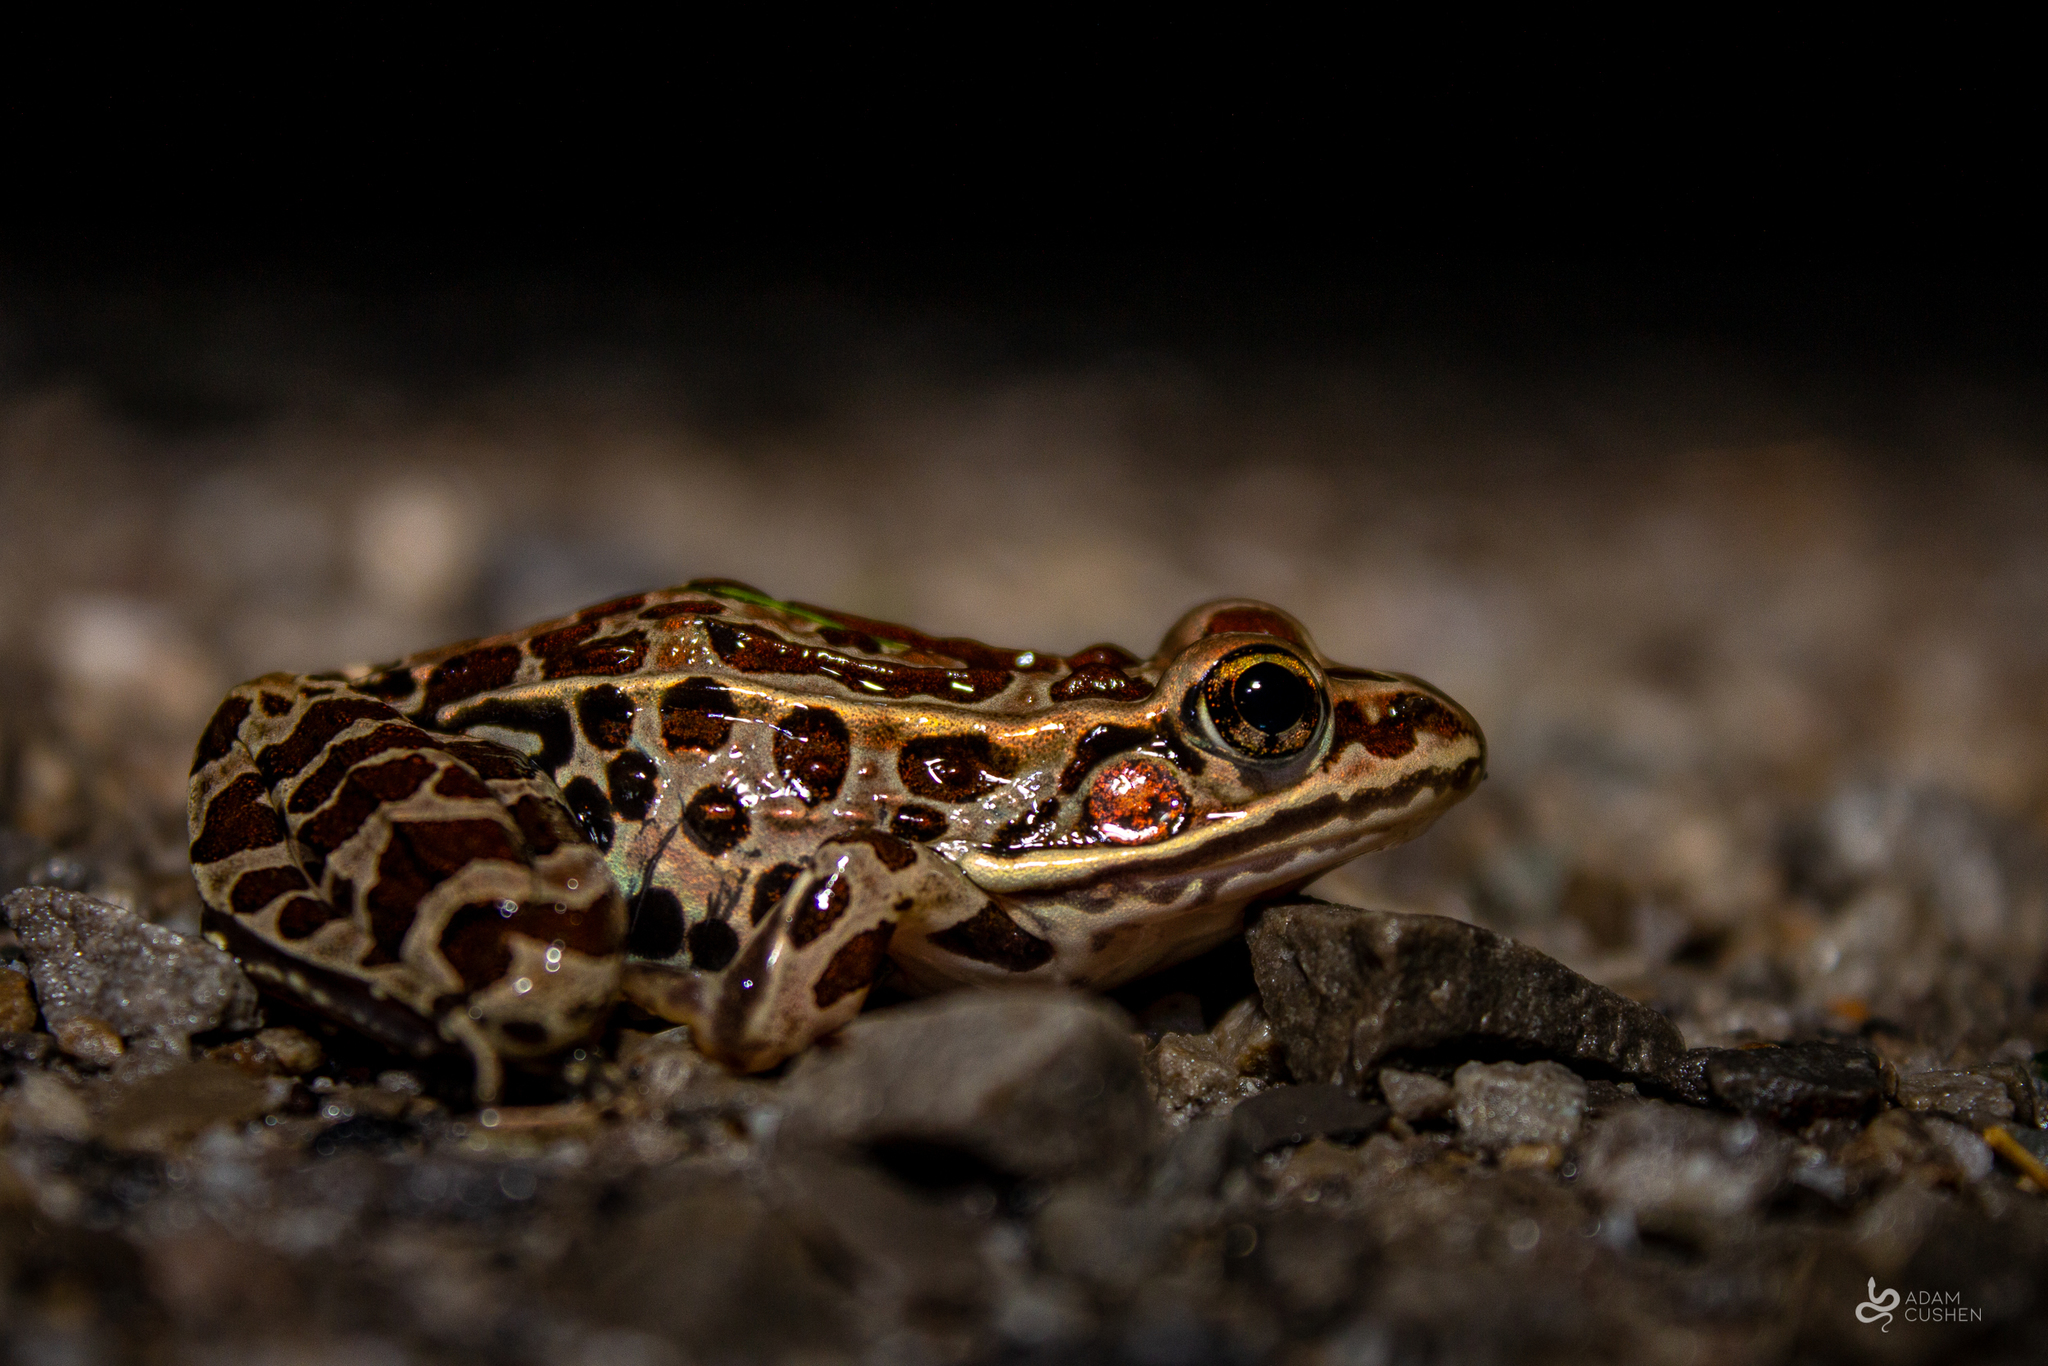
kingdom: Animalia
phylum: Chordata
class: Amphibia
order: Anura
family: Ranidae
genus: Lithobates
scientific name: Lithobates pipiens
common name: Northern leopard frog
